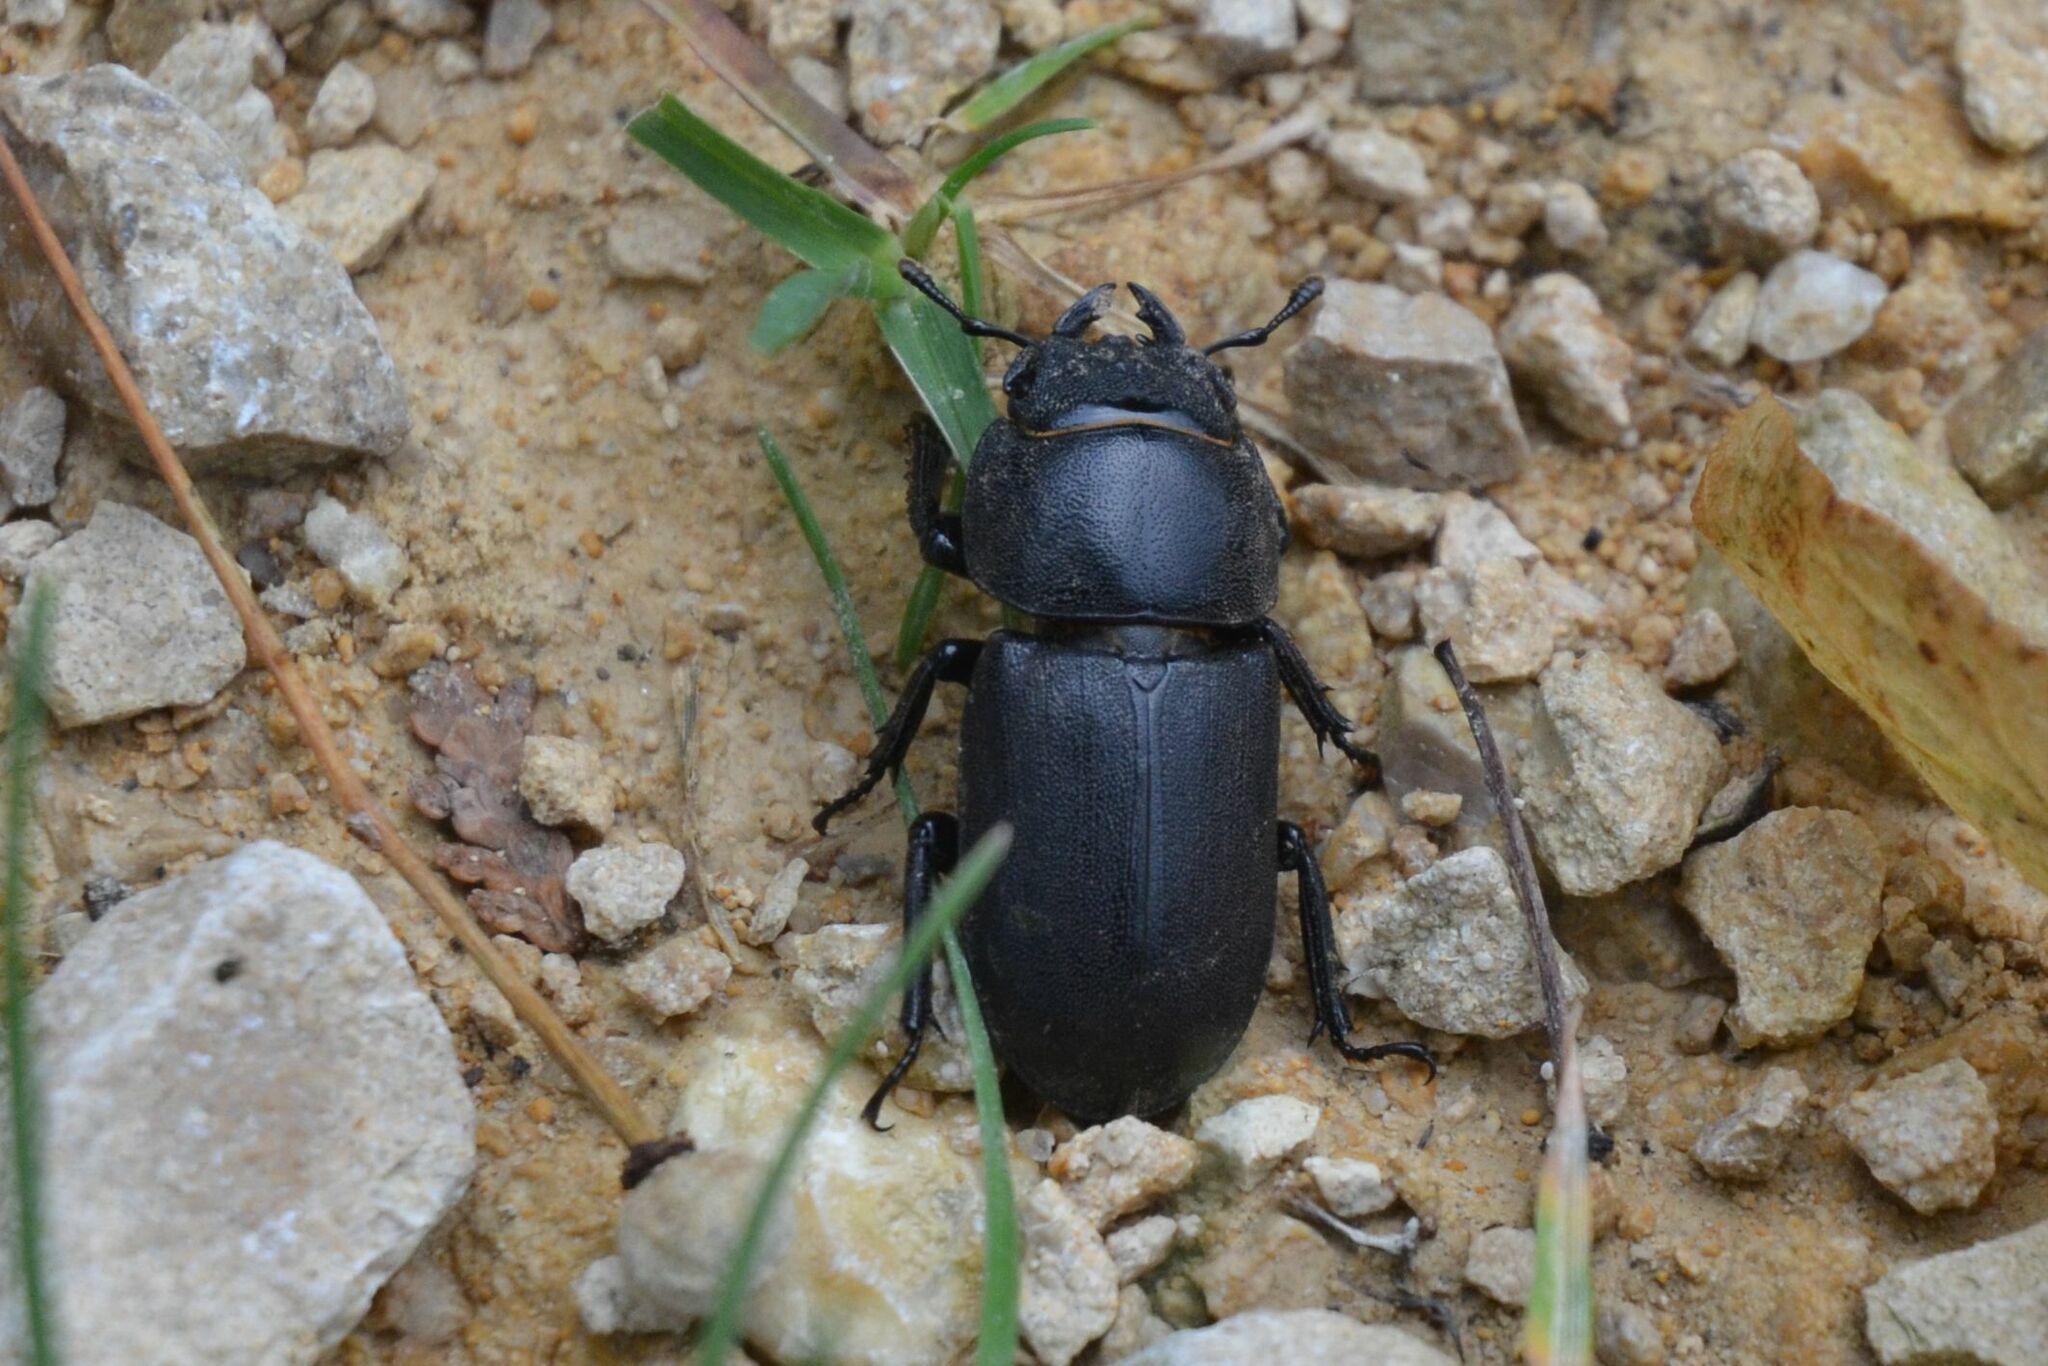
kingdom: Animalia
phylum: Arthropoda
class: Insecta
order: Coleoptera
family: Lucanidae
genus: Dorcus
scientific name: Dorcus parallelipipedus
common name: Lesser stag beetle
